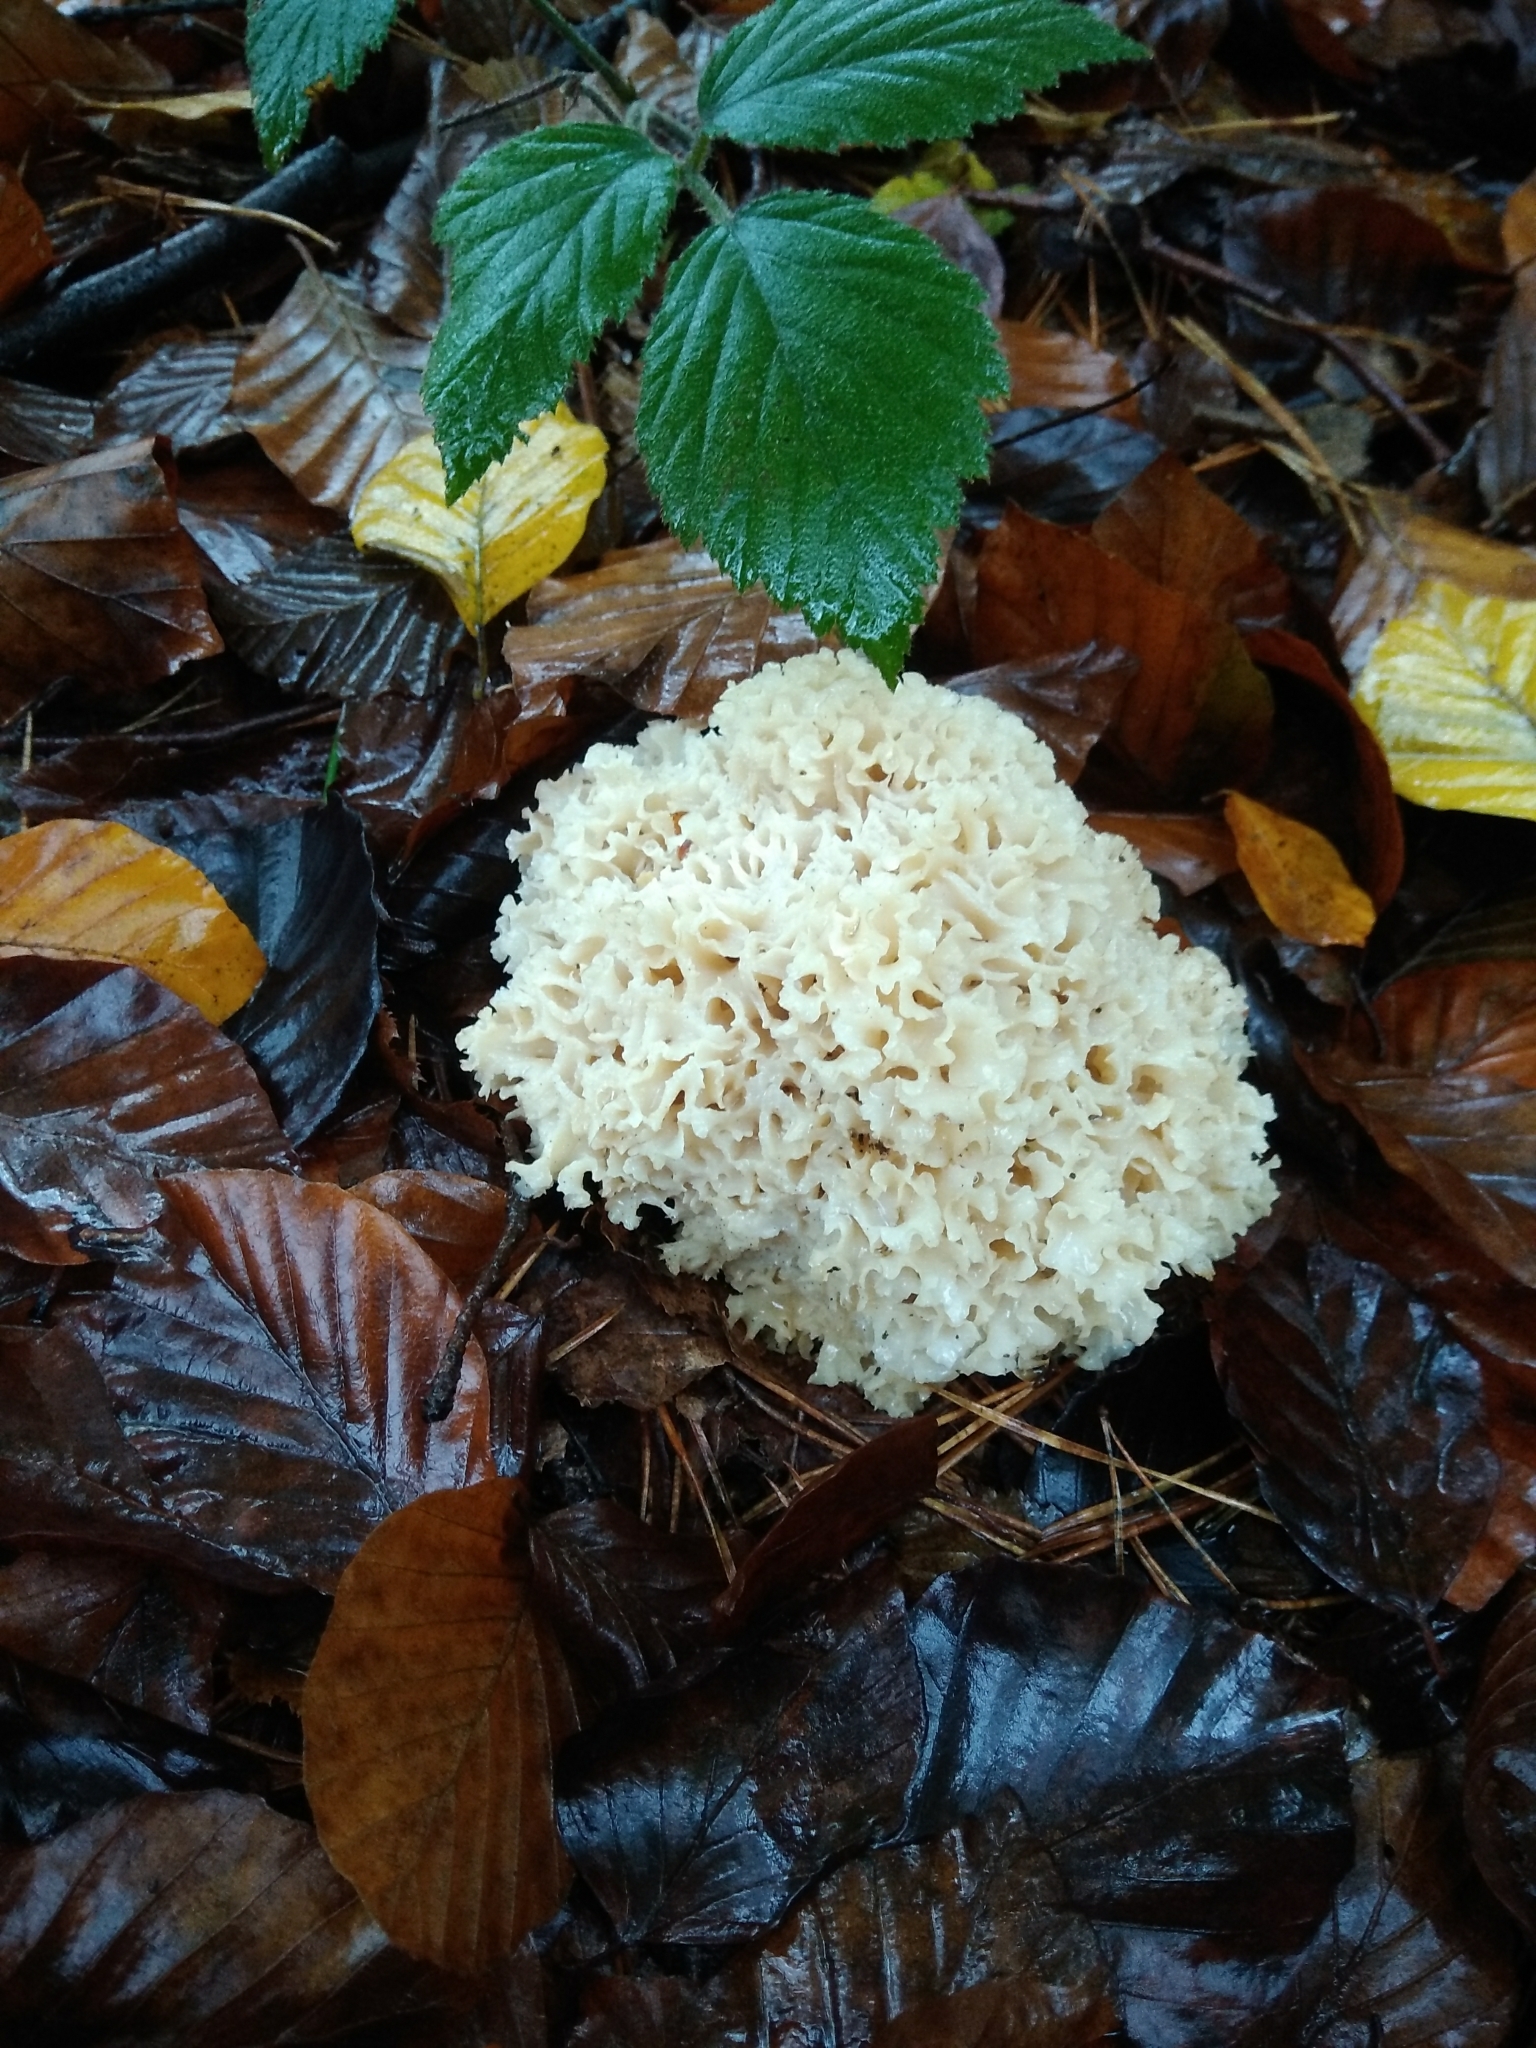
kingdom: Fungi
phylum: Basidiomycota
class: Agaricomycetes
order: Polyporales
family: Sparassidaceae
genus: Sparassis
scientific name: Sparassis crispa
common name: Brain fungus
